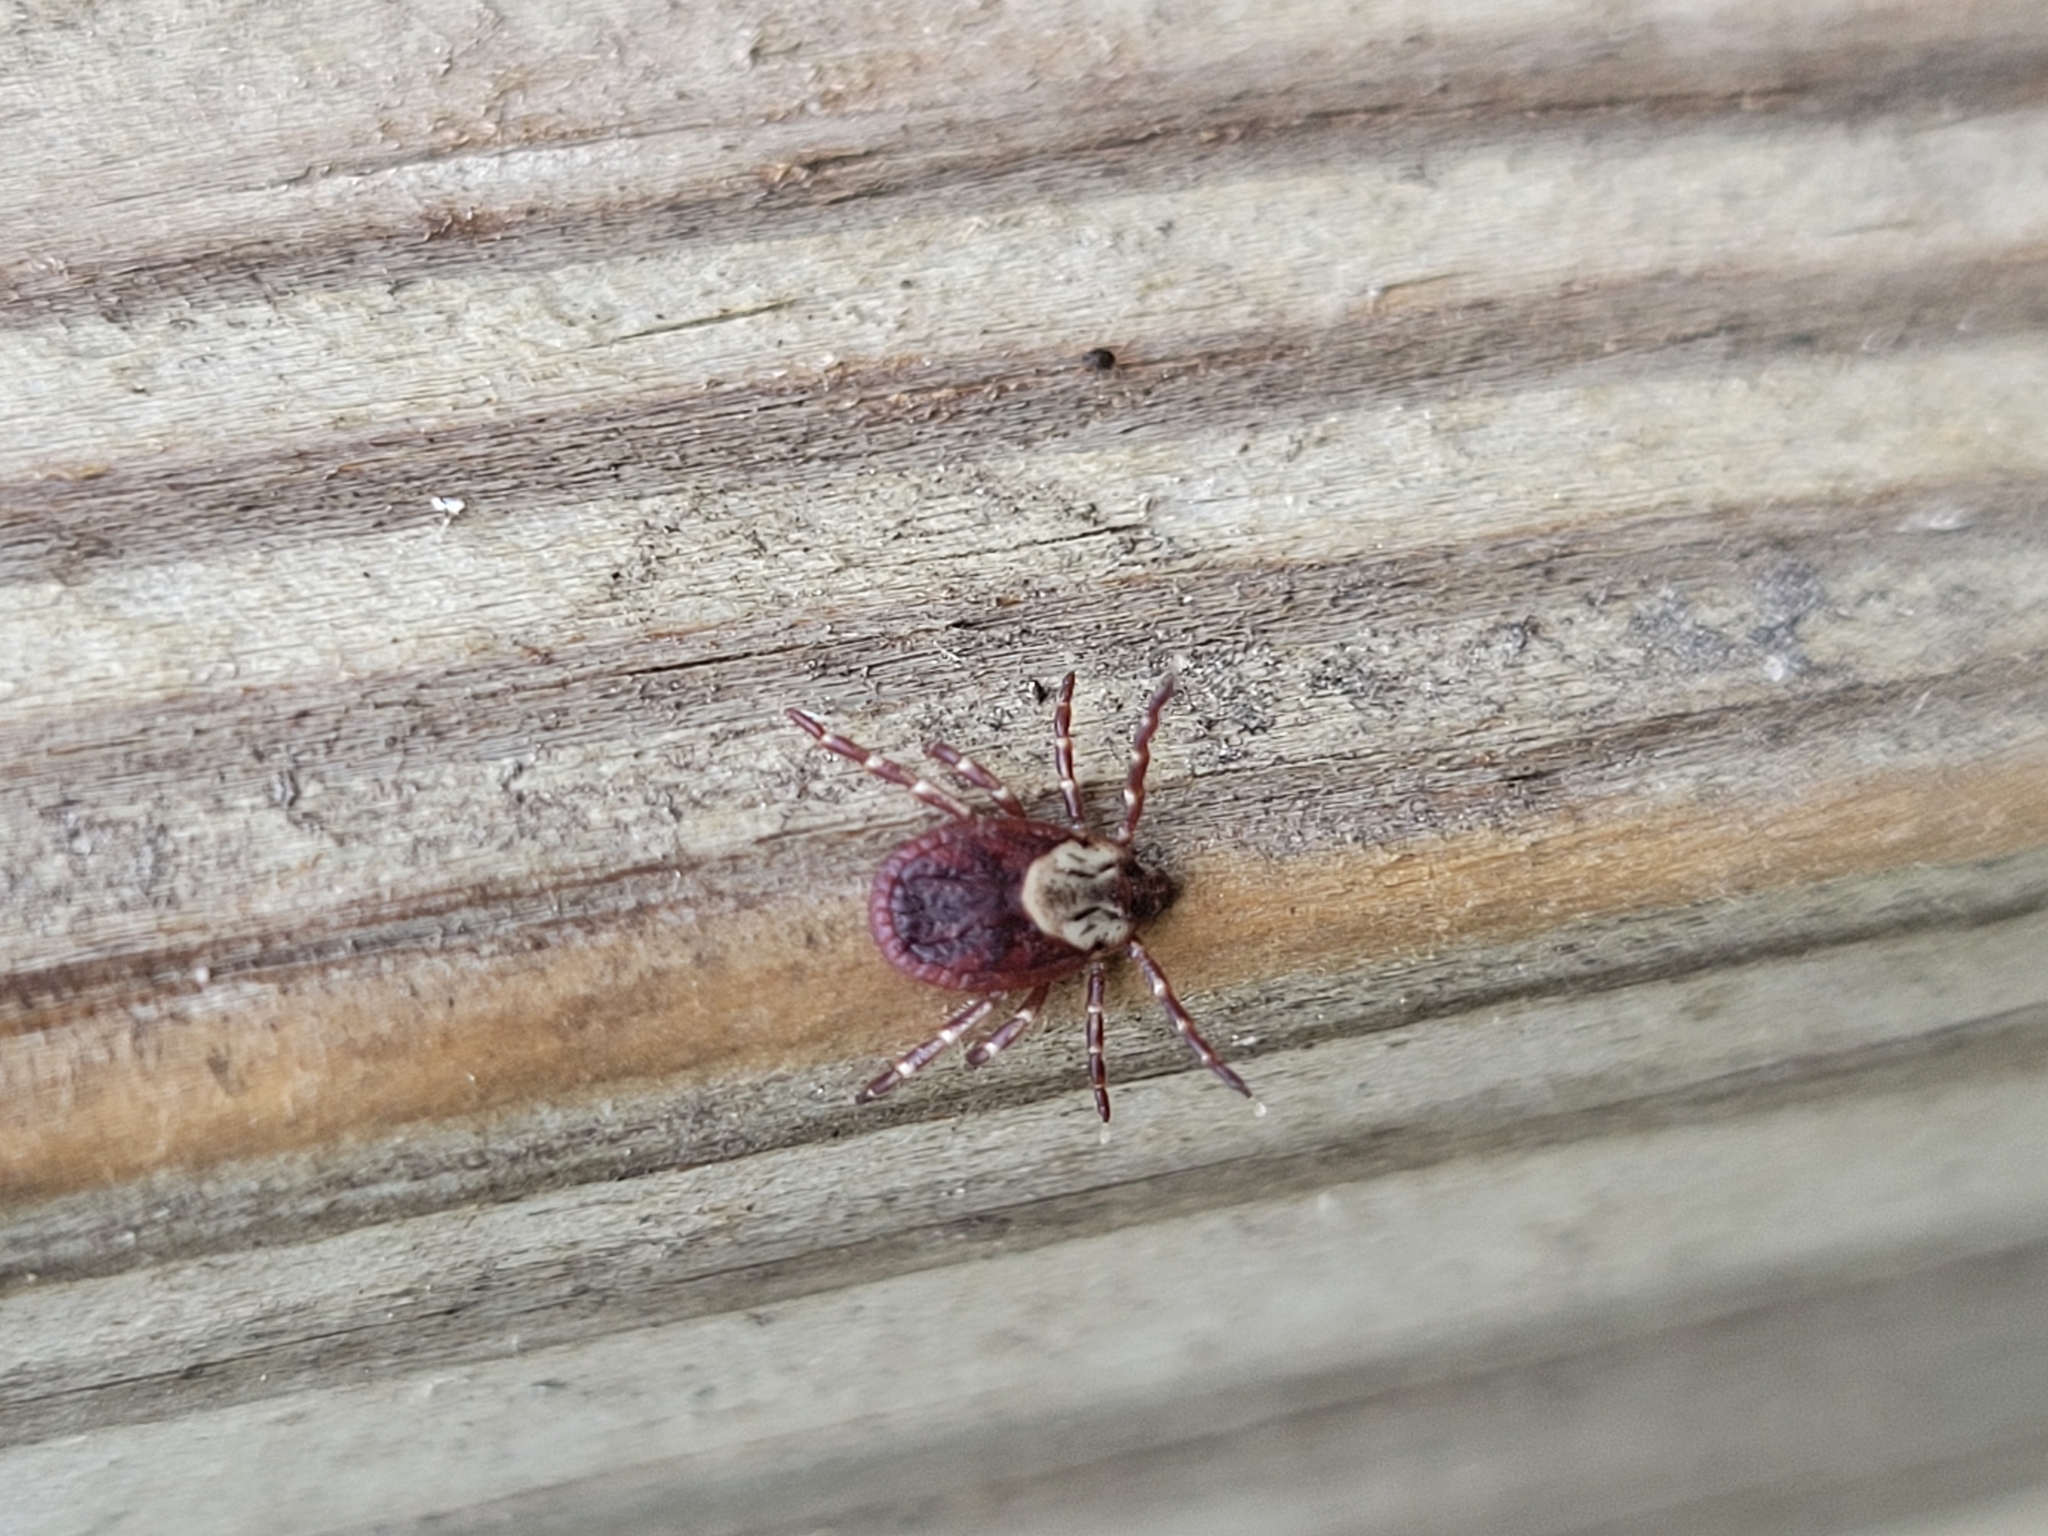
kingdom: Animalia
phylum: Arthropoda
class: Arachnida
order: Ixodida
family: Ixodidae
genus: Dermacentor
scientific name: Dermacentor variabilis
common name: American dog tick
